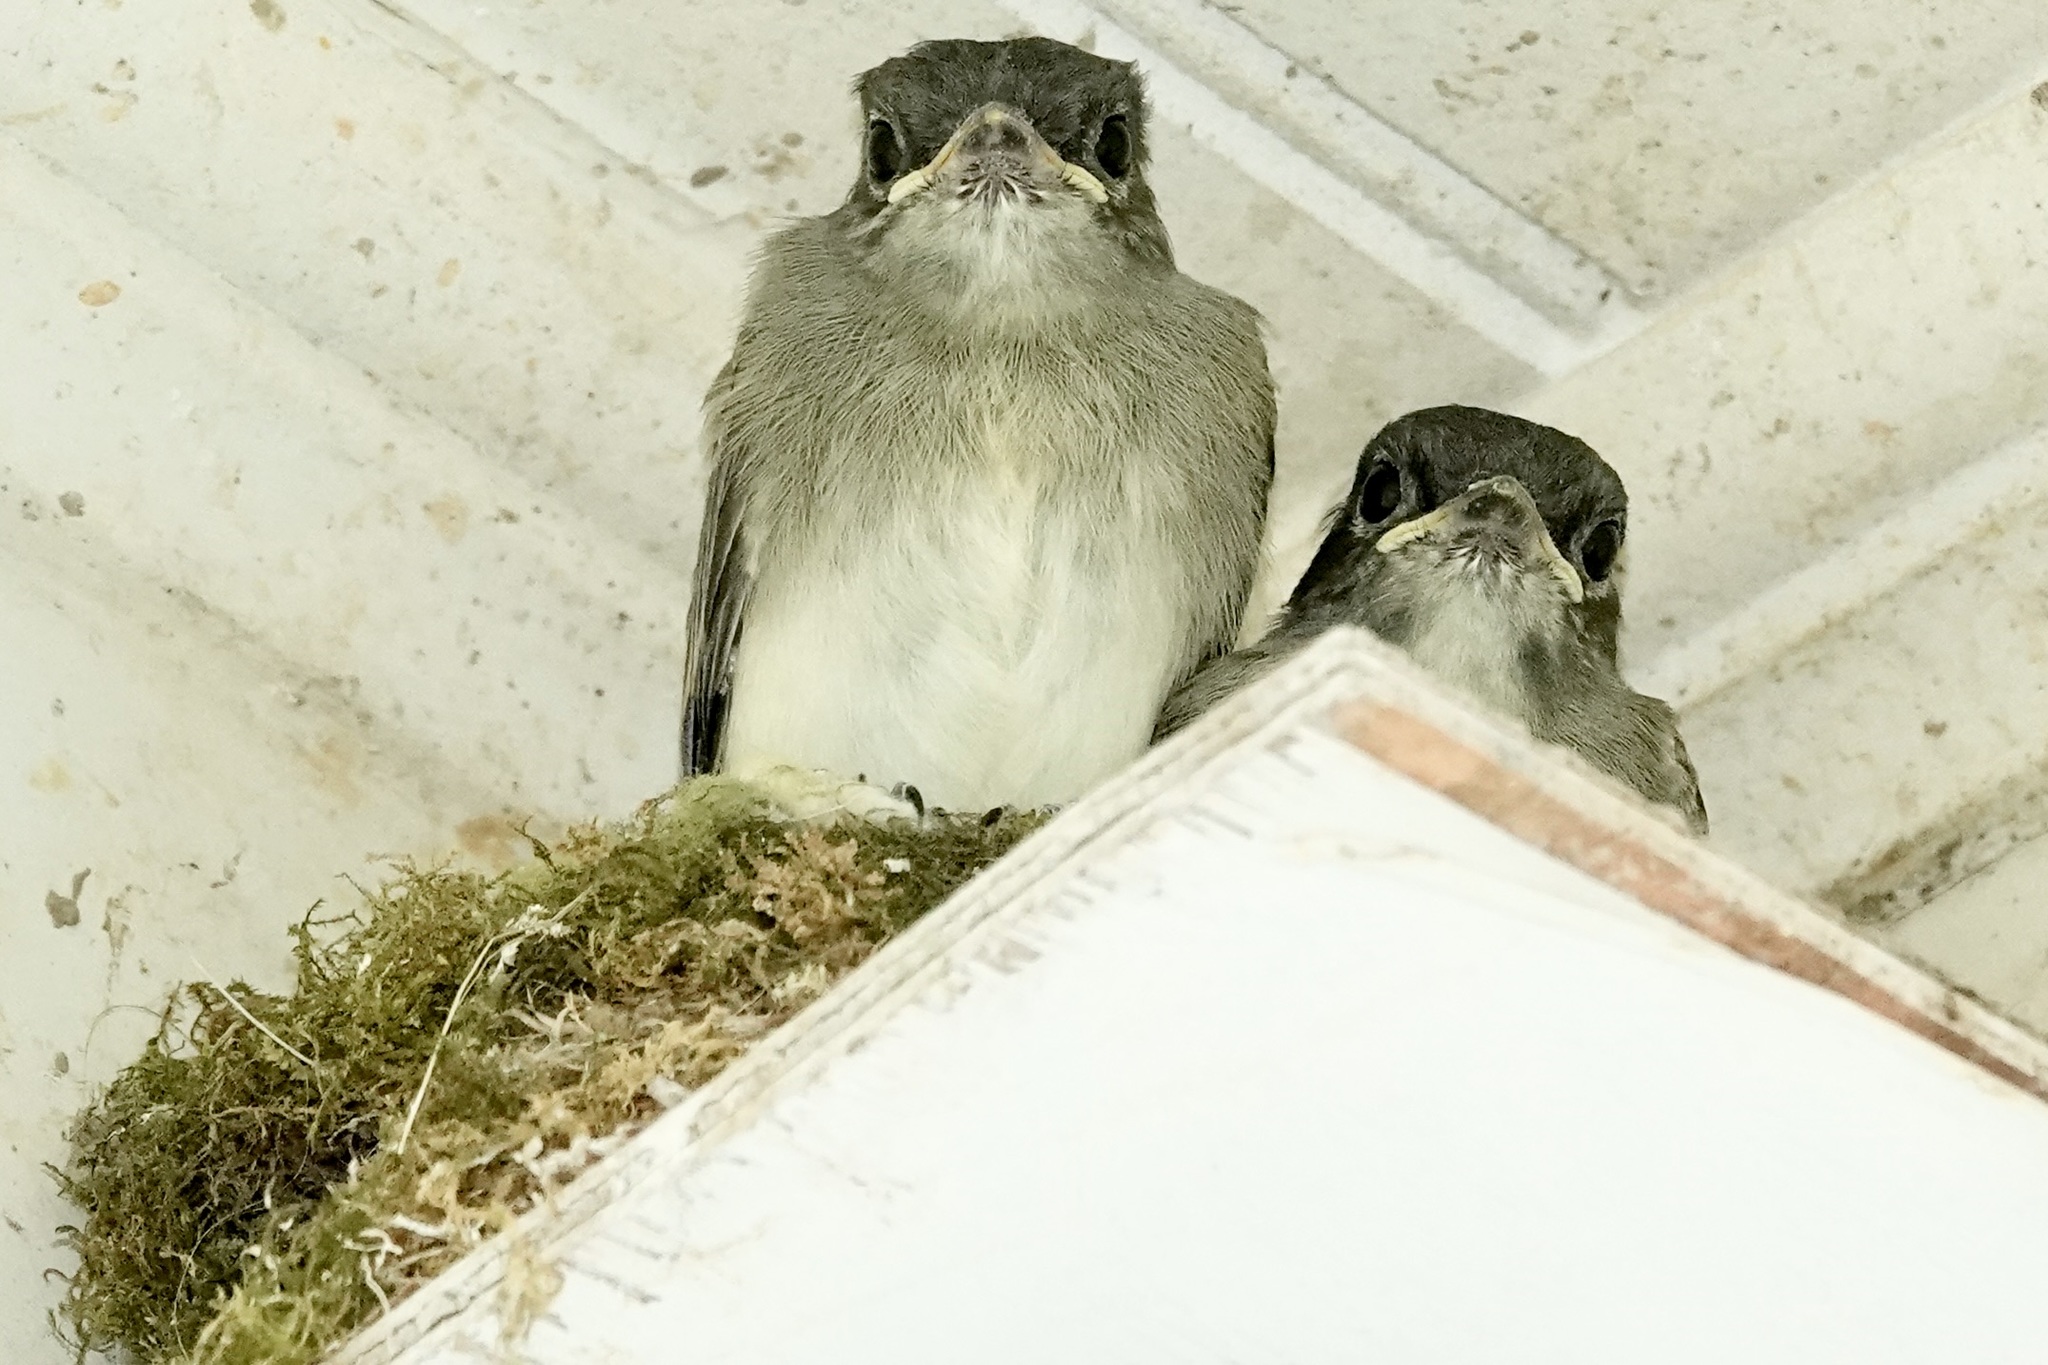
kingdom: Animalia
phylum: Chordata
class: Aves
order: Passeriformes
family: Tyrannidae
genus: Sayornis
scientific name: Sayornis phoebe
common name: Eastern phoebe
